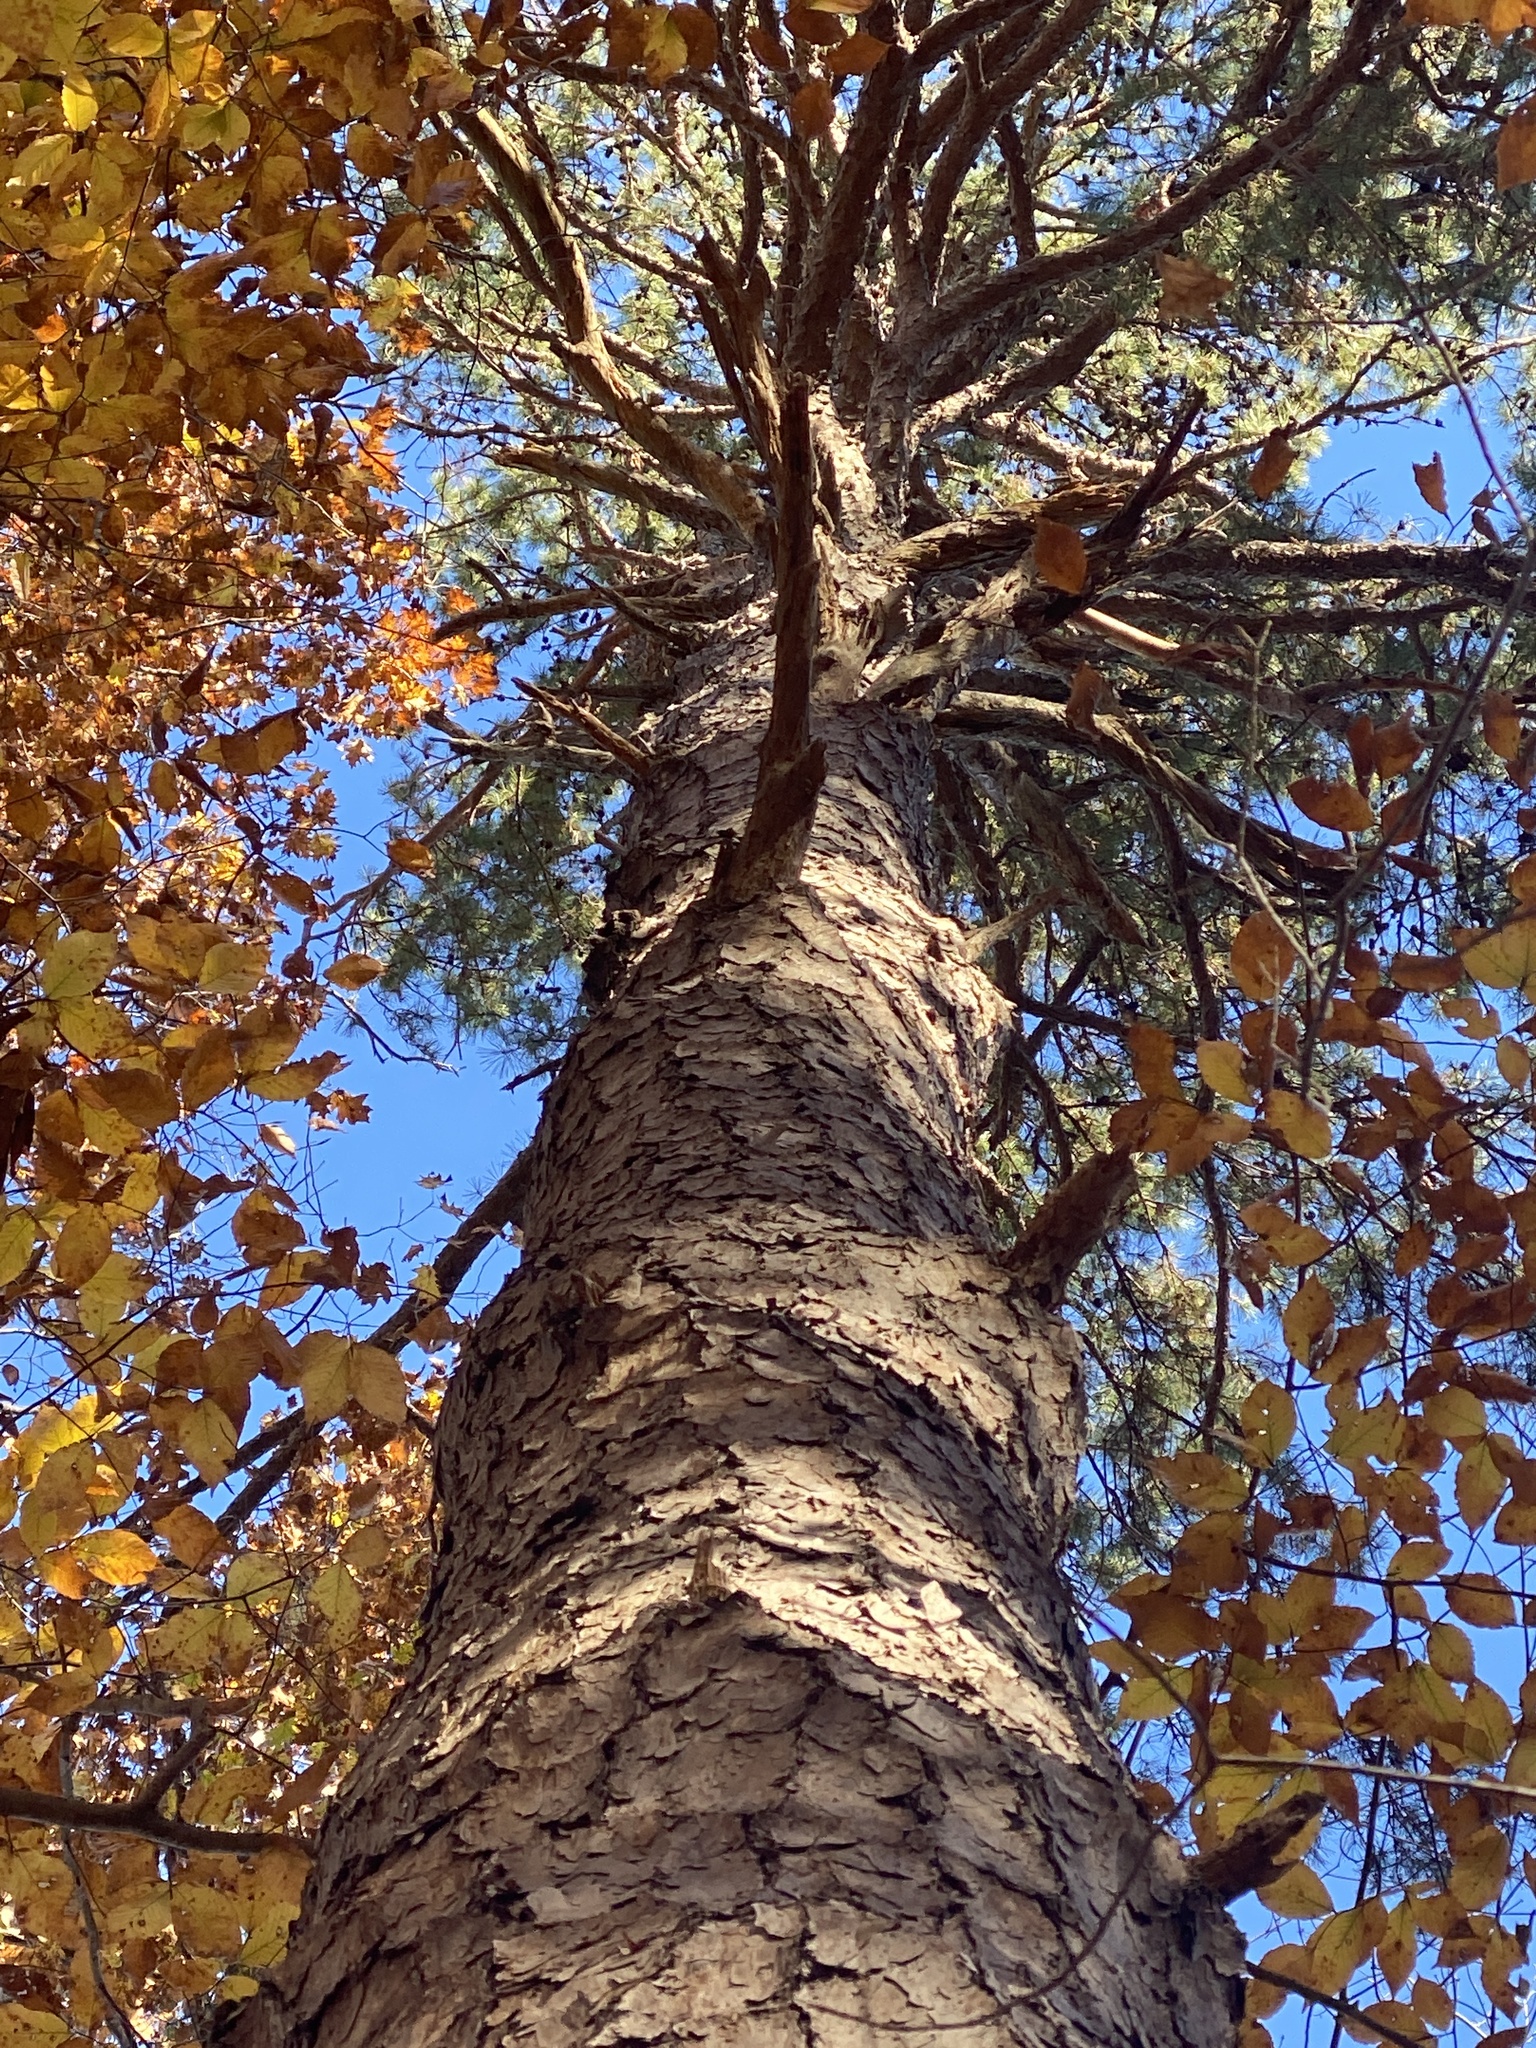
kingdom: Plantae
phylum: Tracheophyta
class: Pinopsida
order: Pinales
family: Pinaceae
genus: Pinus
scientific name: Pinus echinata
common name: Shortleaf pine
